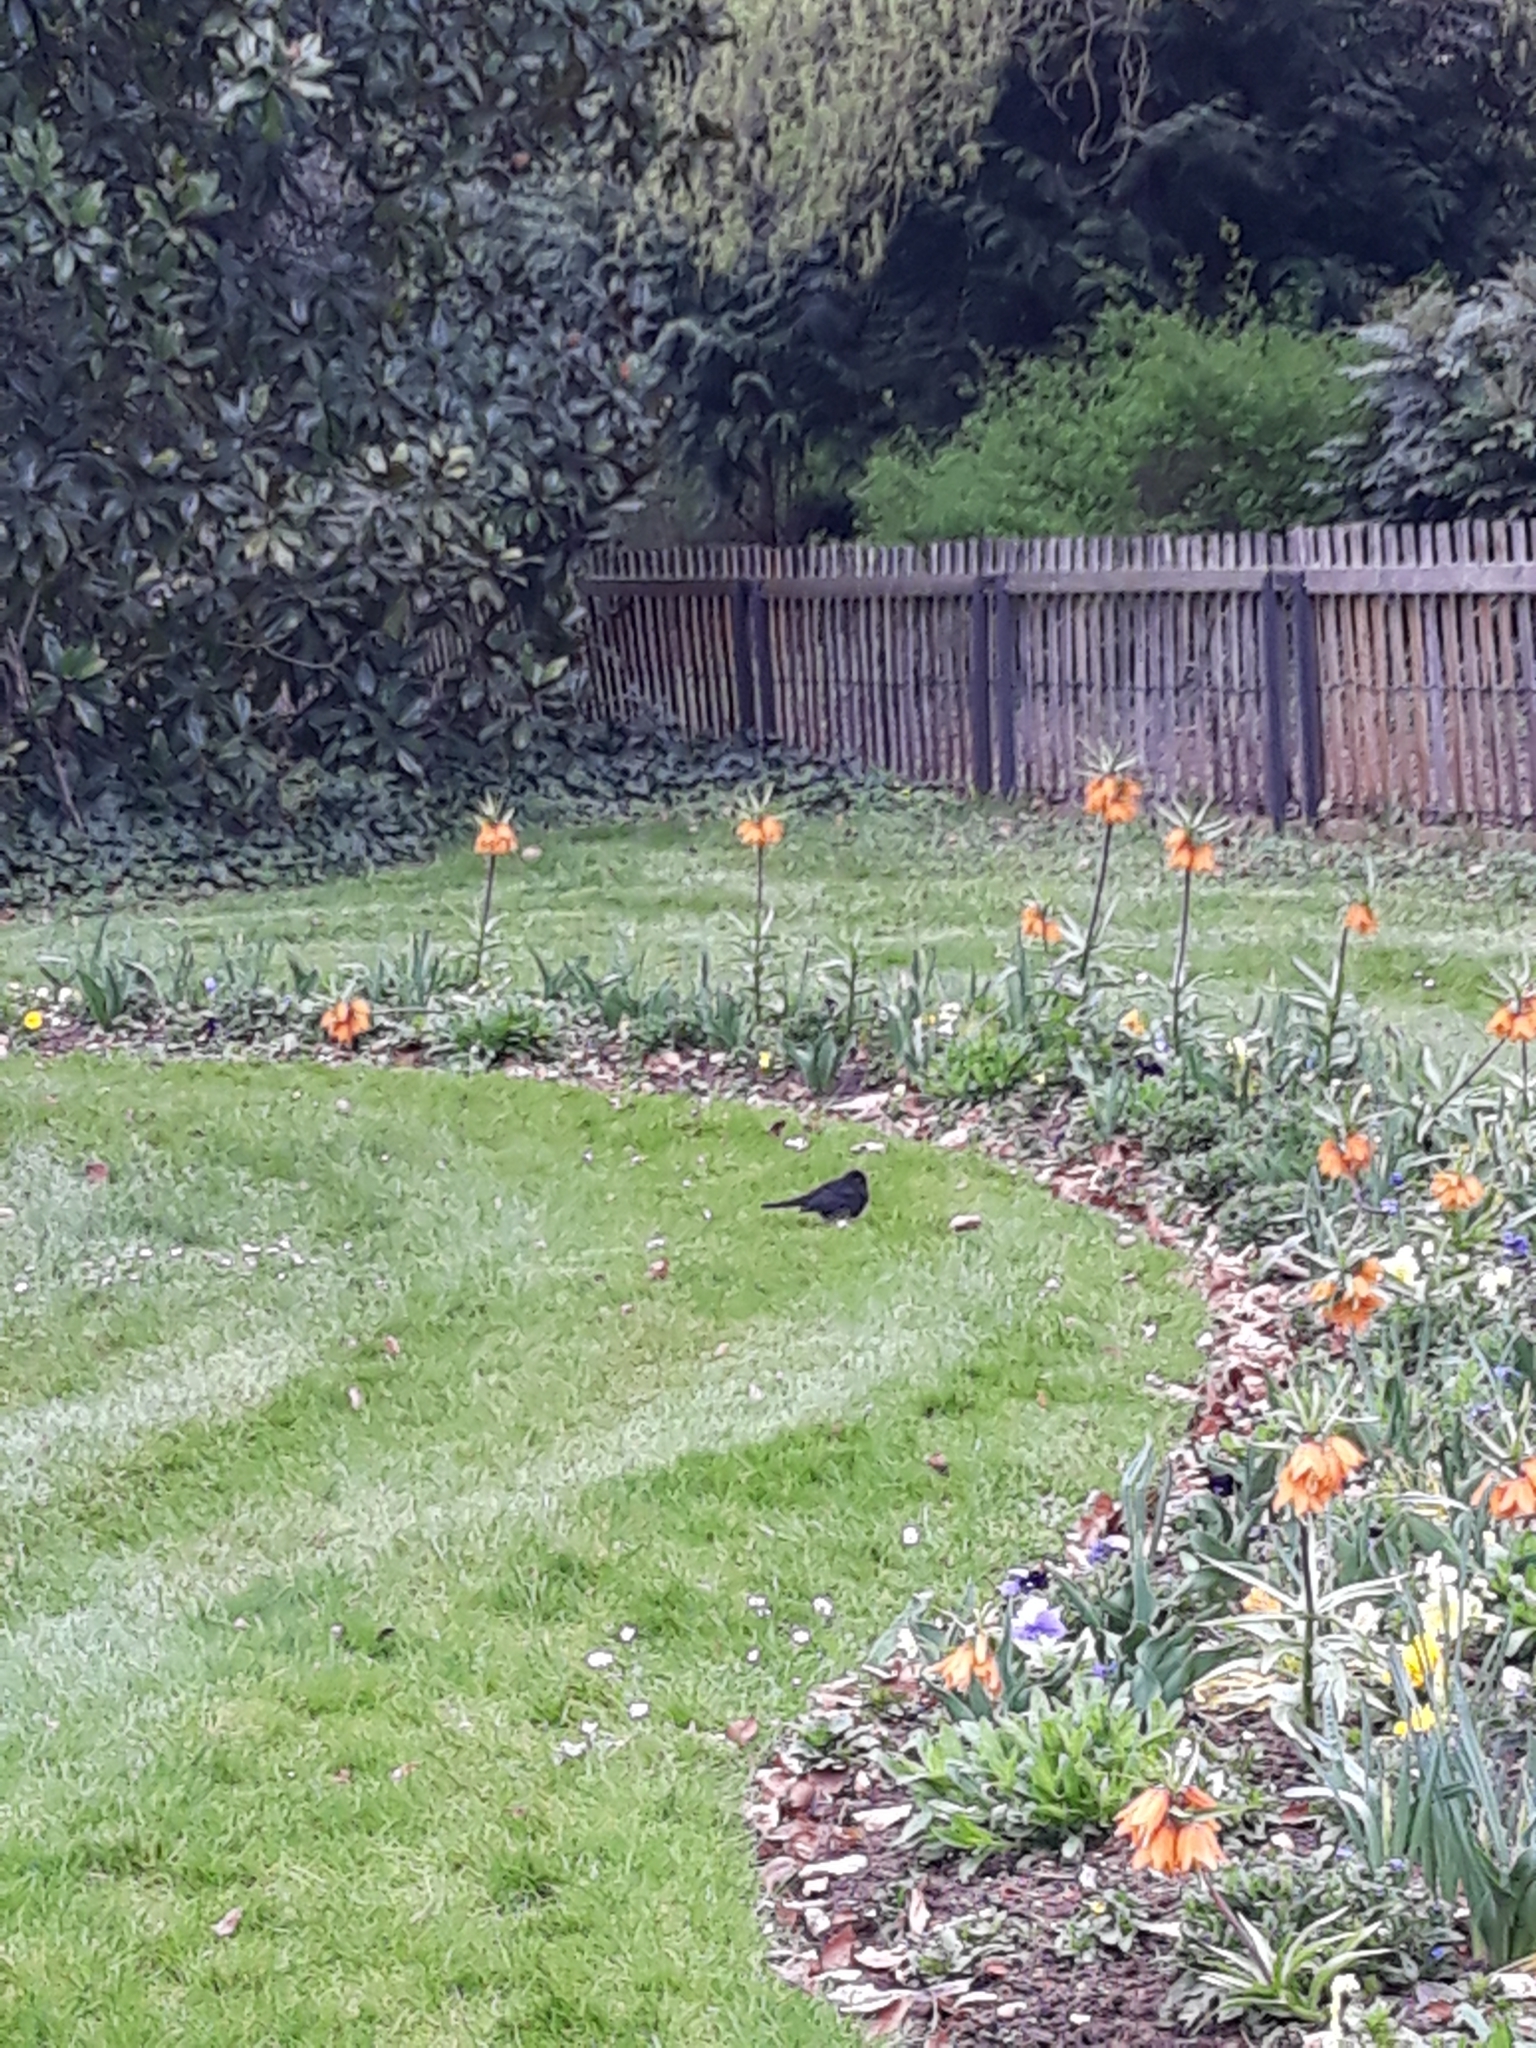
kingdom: Animalia
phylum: Chordata
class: Aves
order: Passeriformes
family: Turdidae
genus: Turdus
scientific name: Turdus merula
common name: Common blackbird
